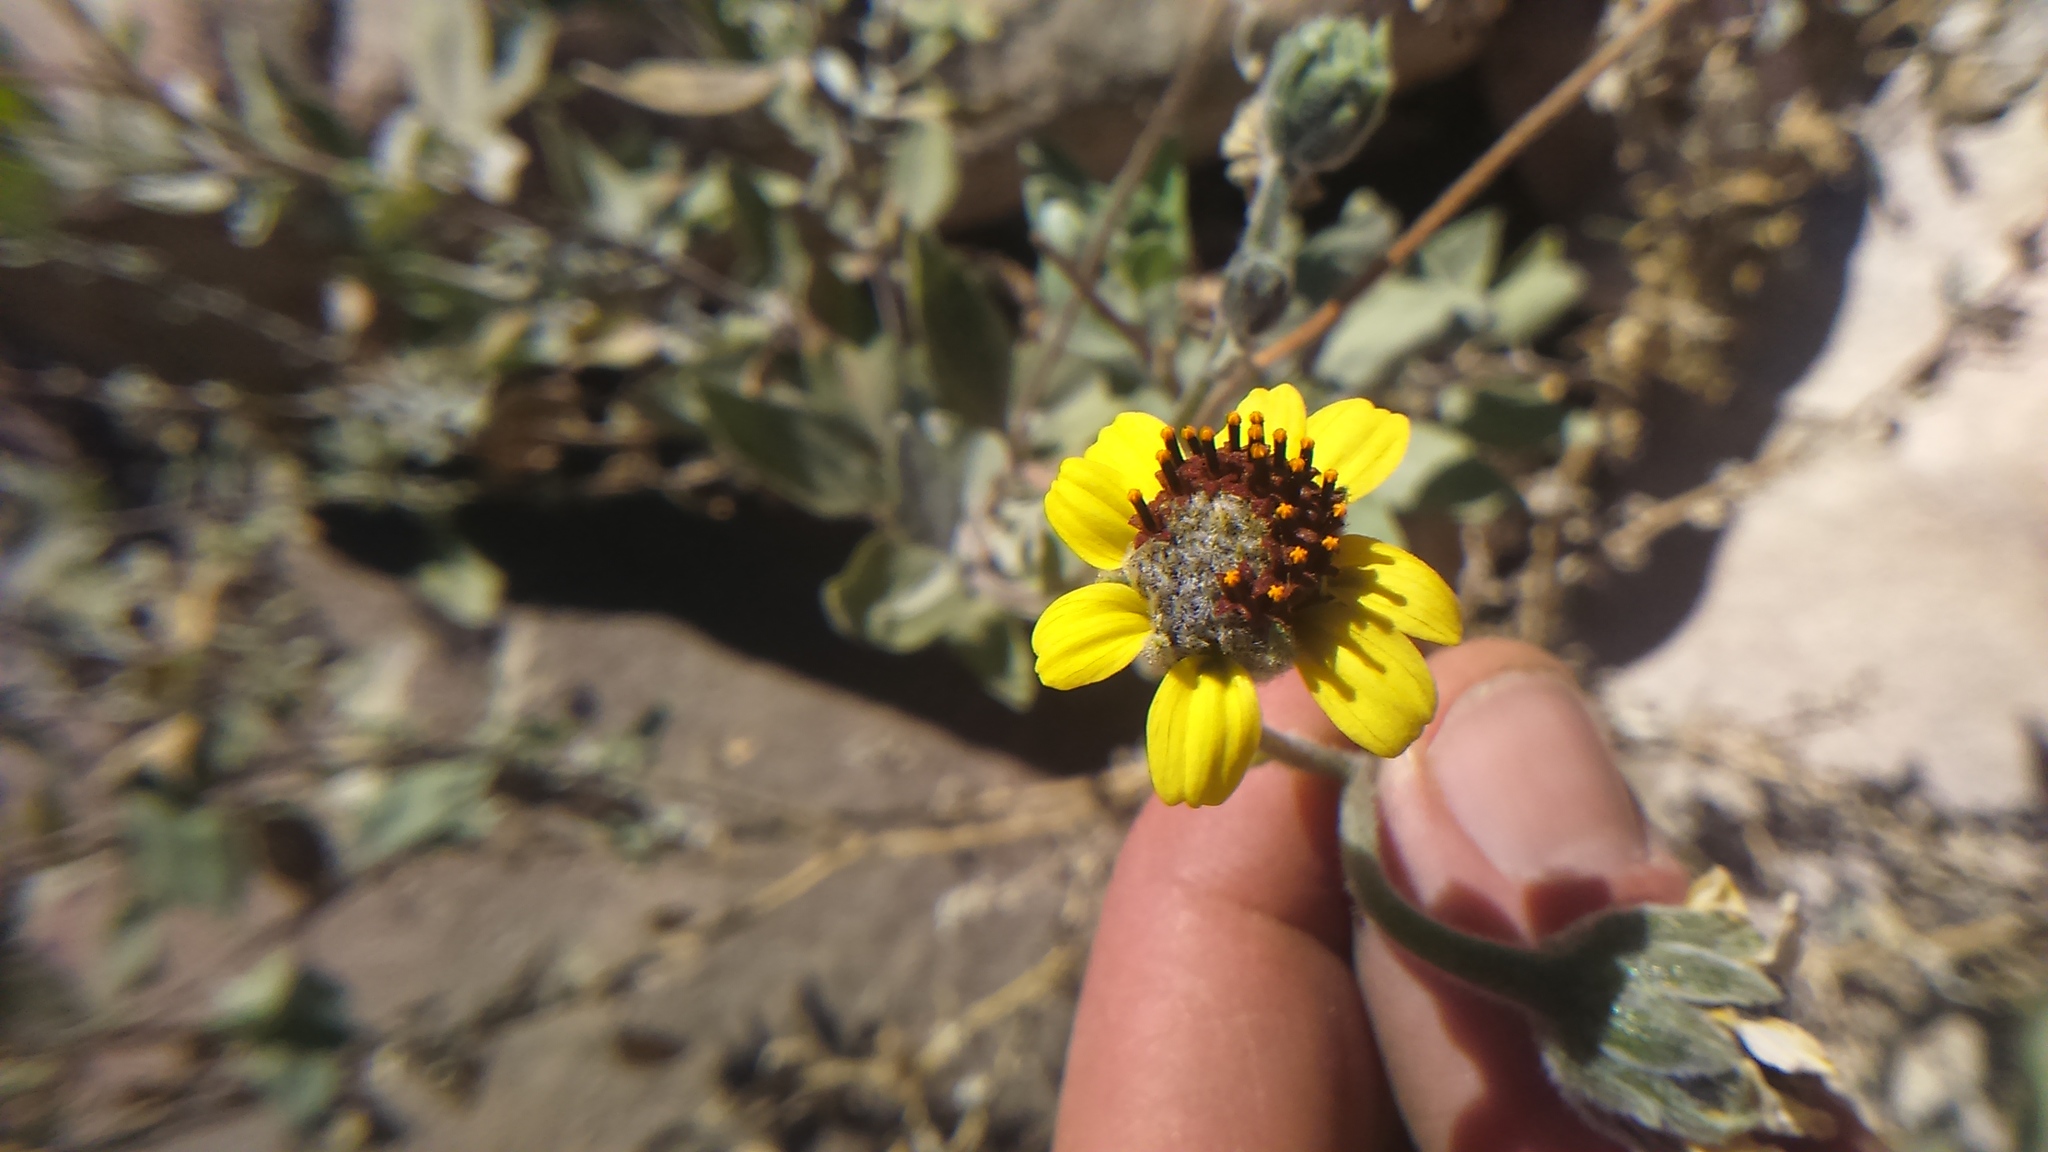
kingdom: Plantae
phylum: Tracheophyta
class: Magnoliopsida
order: Asterales
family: Asteraceae
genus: Encelia
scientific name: Encelia canescens
